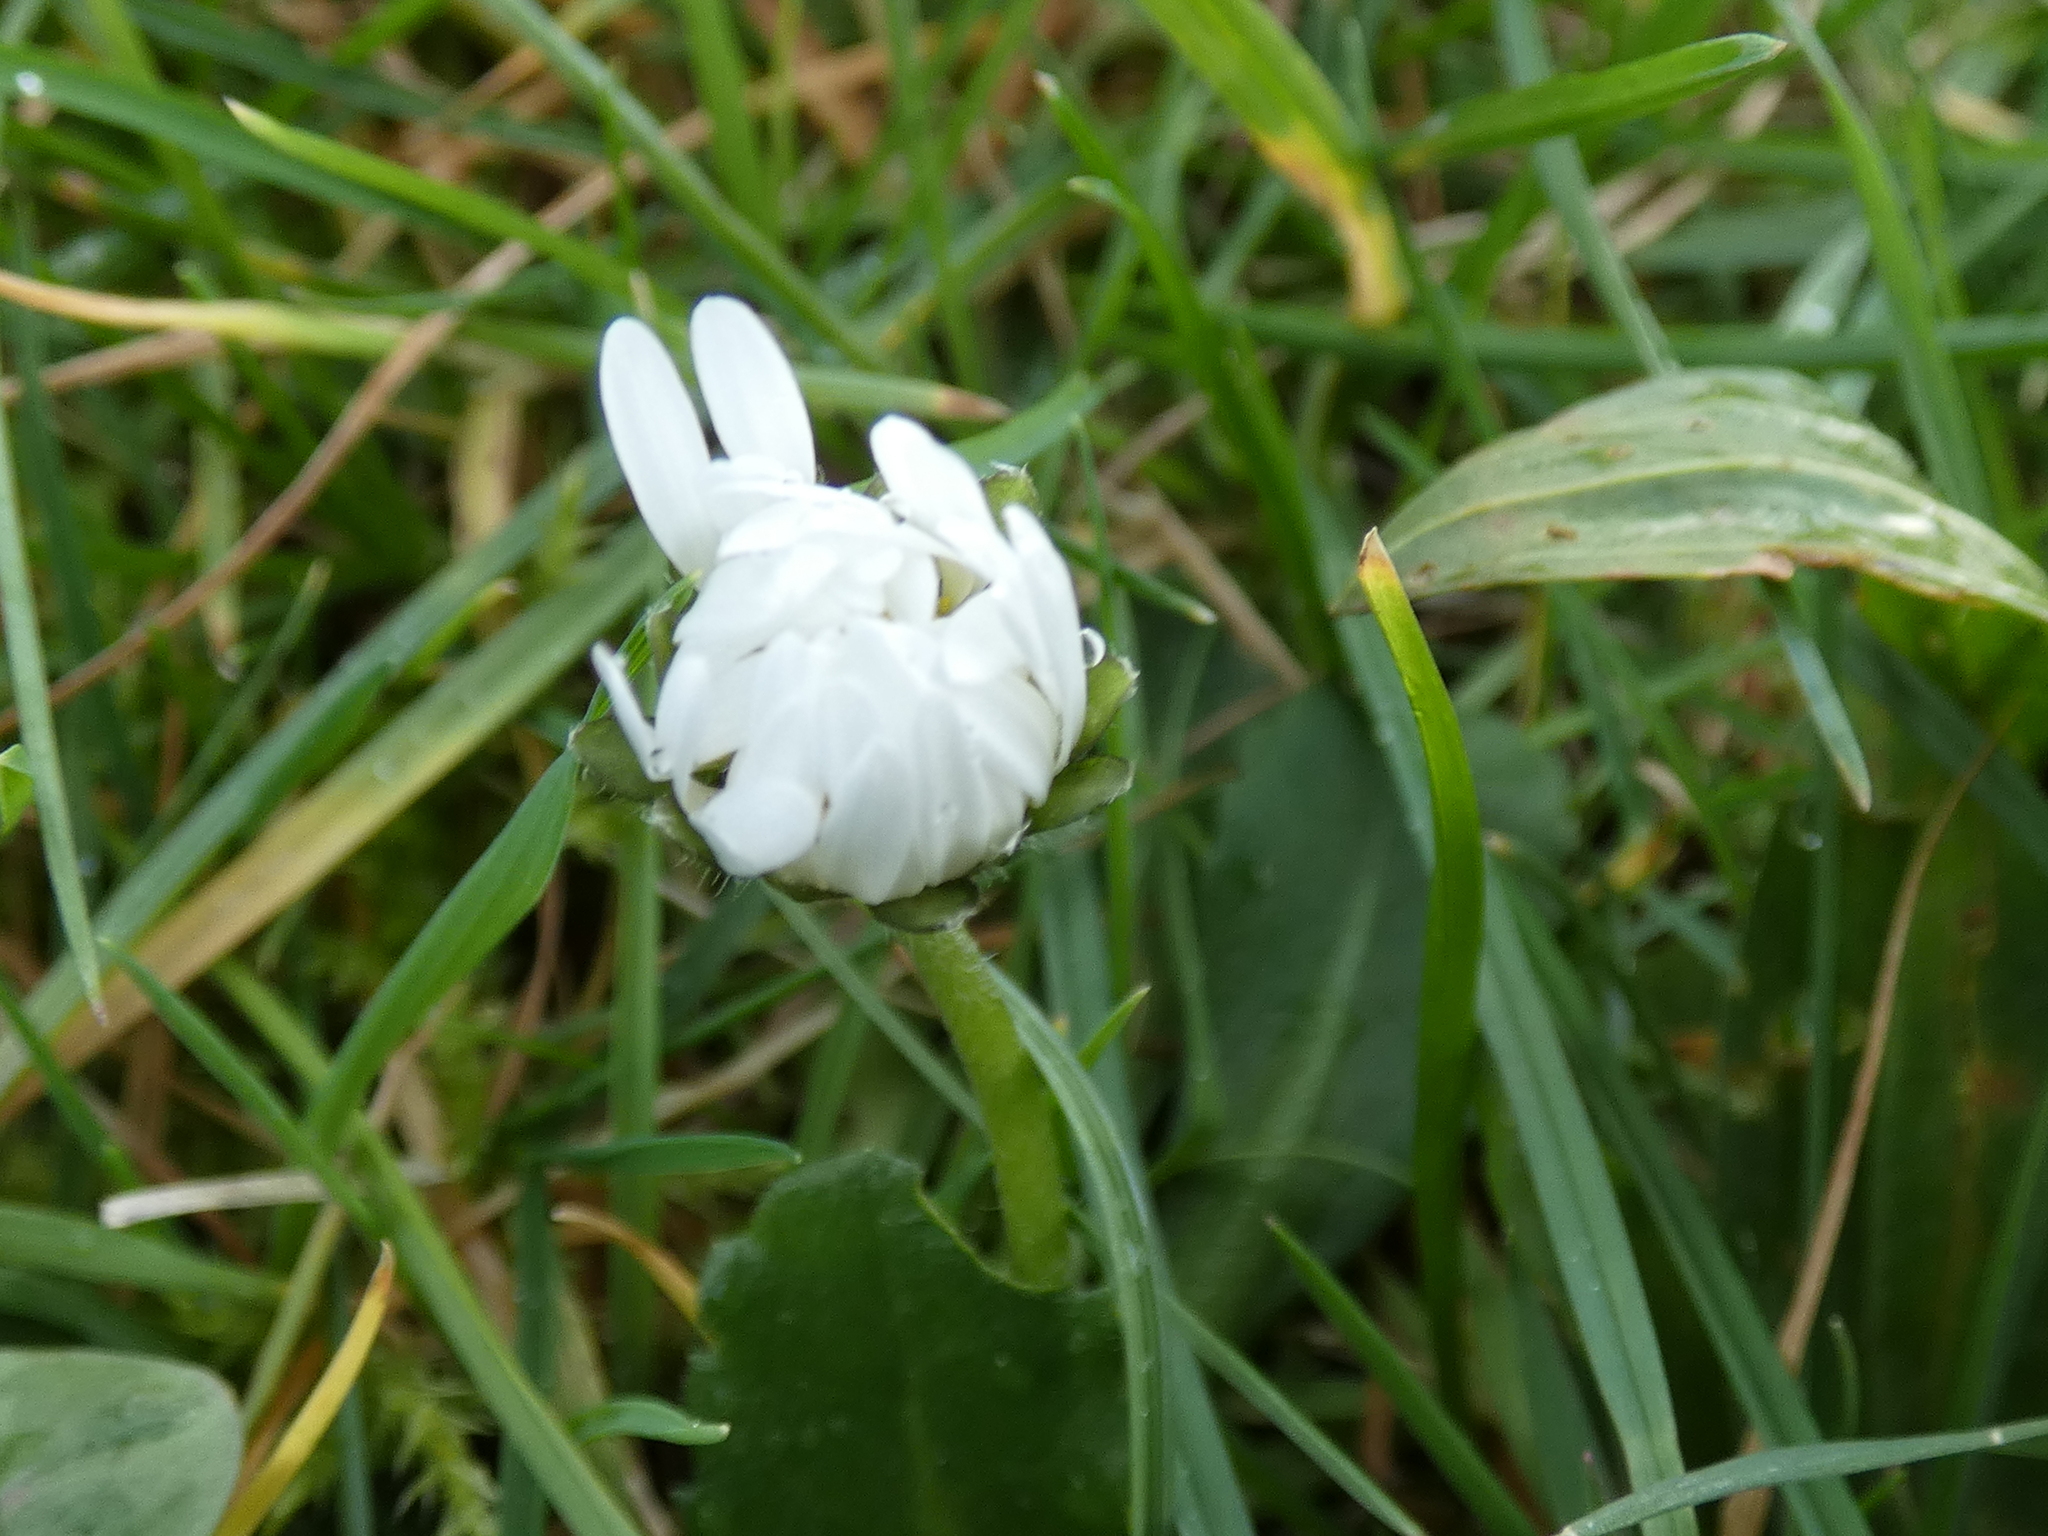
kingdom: Plantae
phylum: Tracheophyta
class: Magnoliopsida
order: Asterales
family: Asteraceae
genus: Bellis
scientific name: Bellis perennis
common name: Lawndaisy
